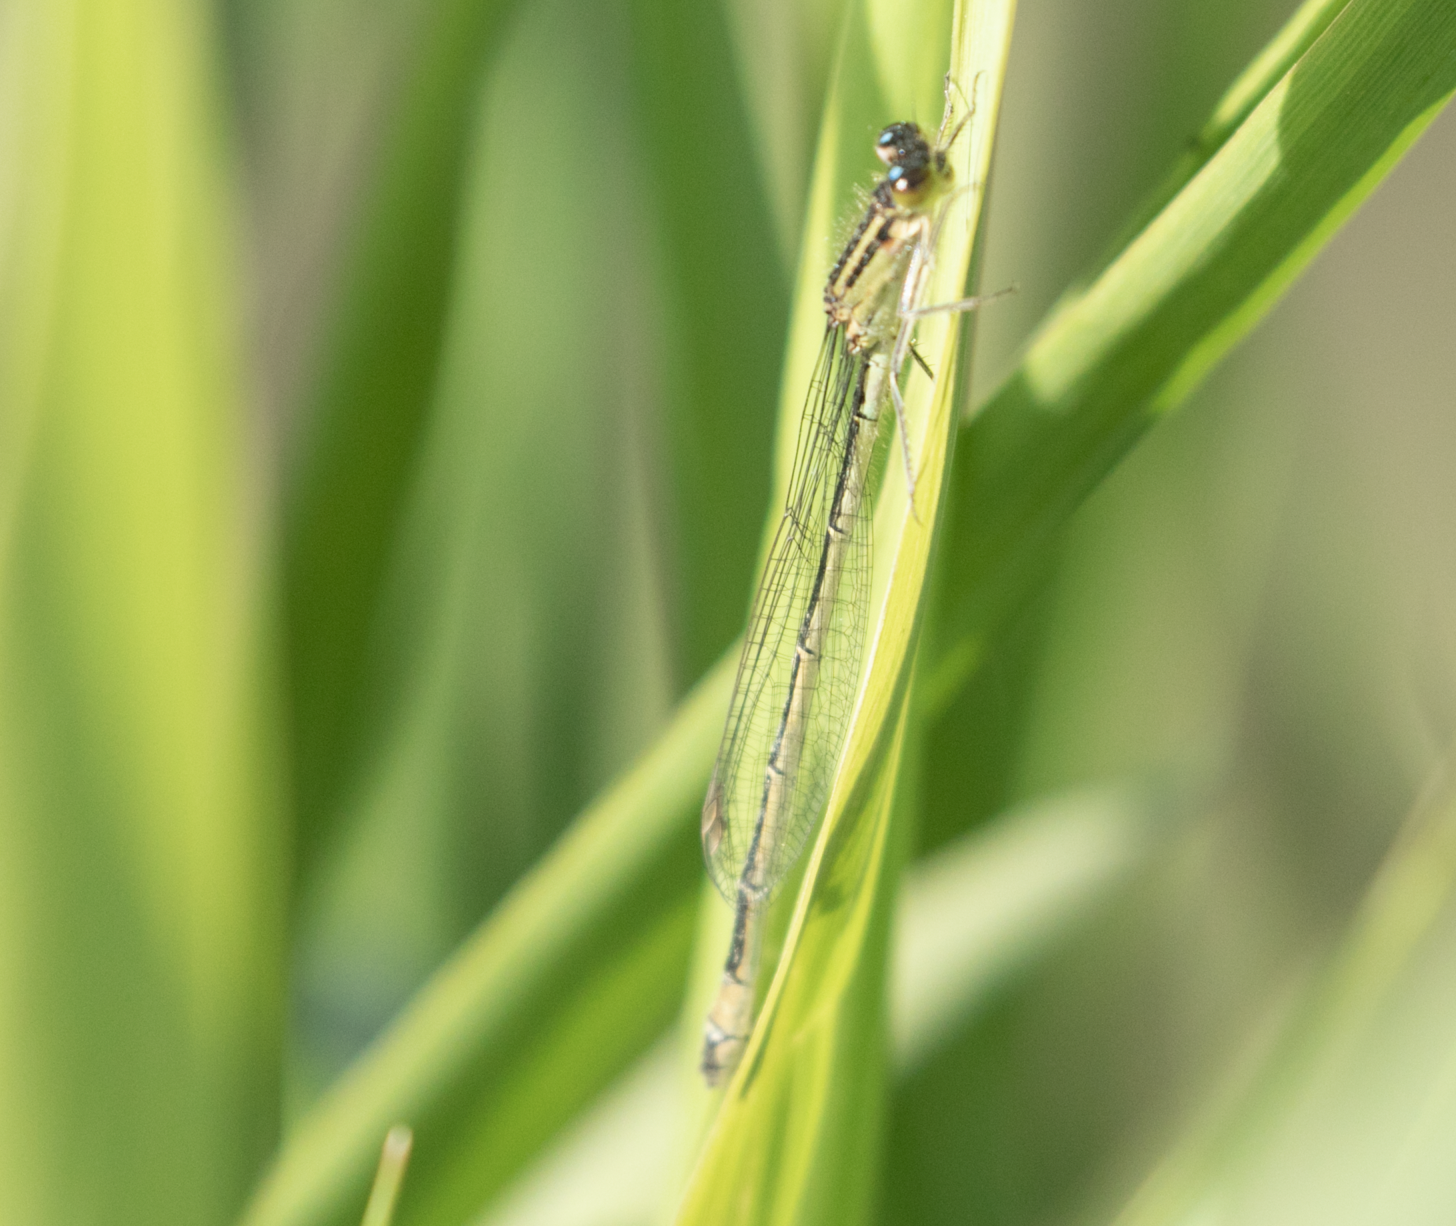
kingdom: Animalia
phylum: Arthropoda
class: Insecta
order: Odonata
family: Coenagrionidae
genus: Ischnura
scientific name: Ischnura elegans
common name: Blue-tailed damselfly
